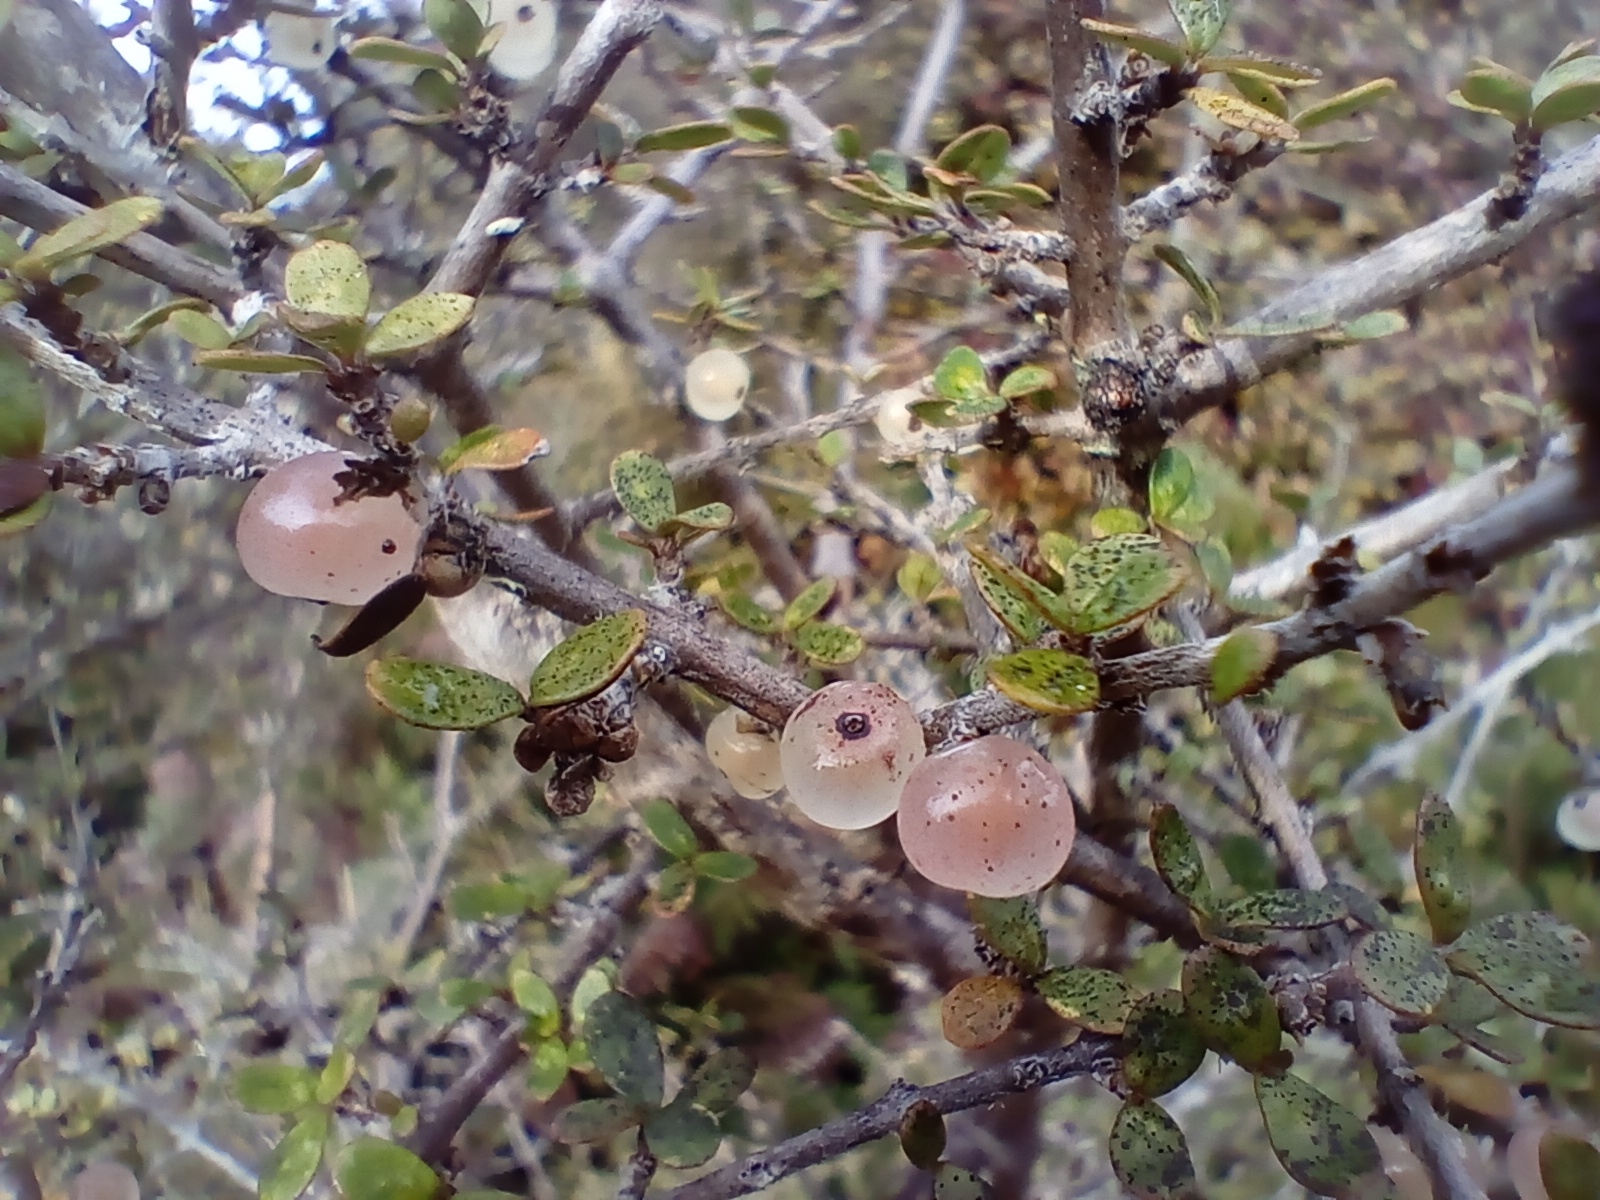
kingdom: Plantae
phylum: Tracheophyta
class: Magnoliopsida
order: Gentianales
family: Rubiaceae
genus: Coprosma
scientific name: Coprosma dumosa
